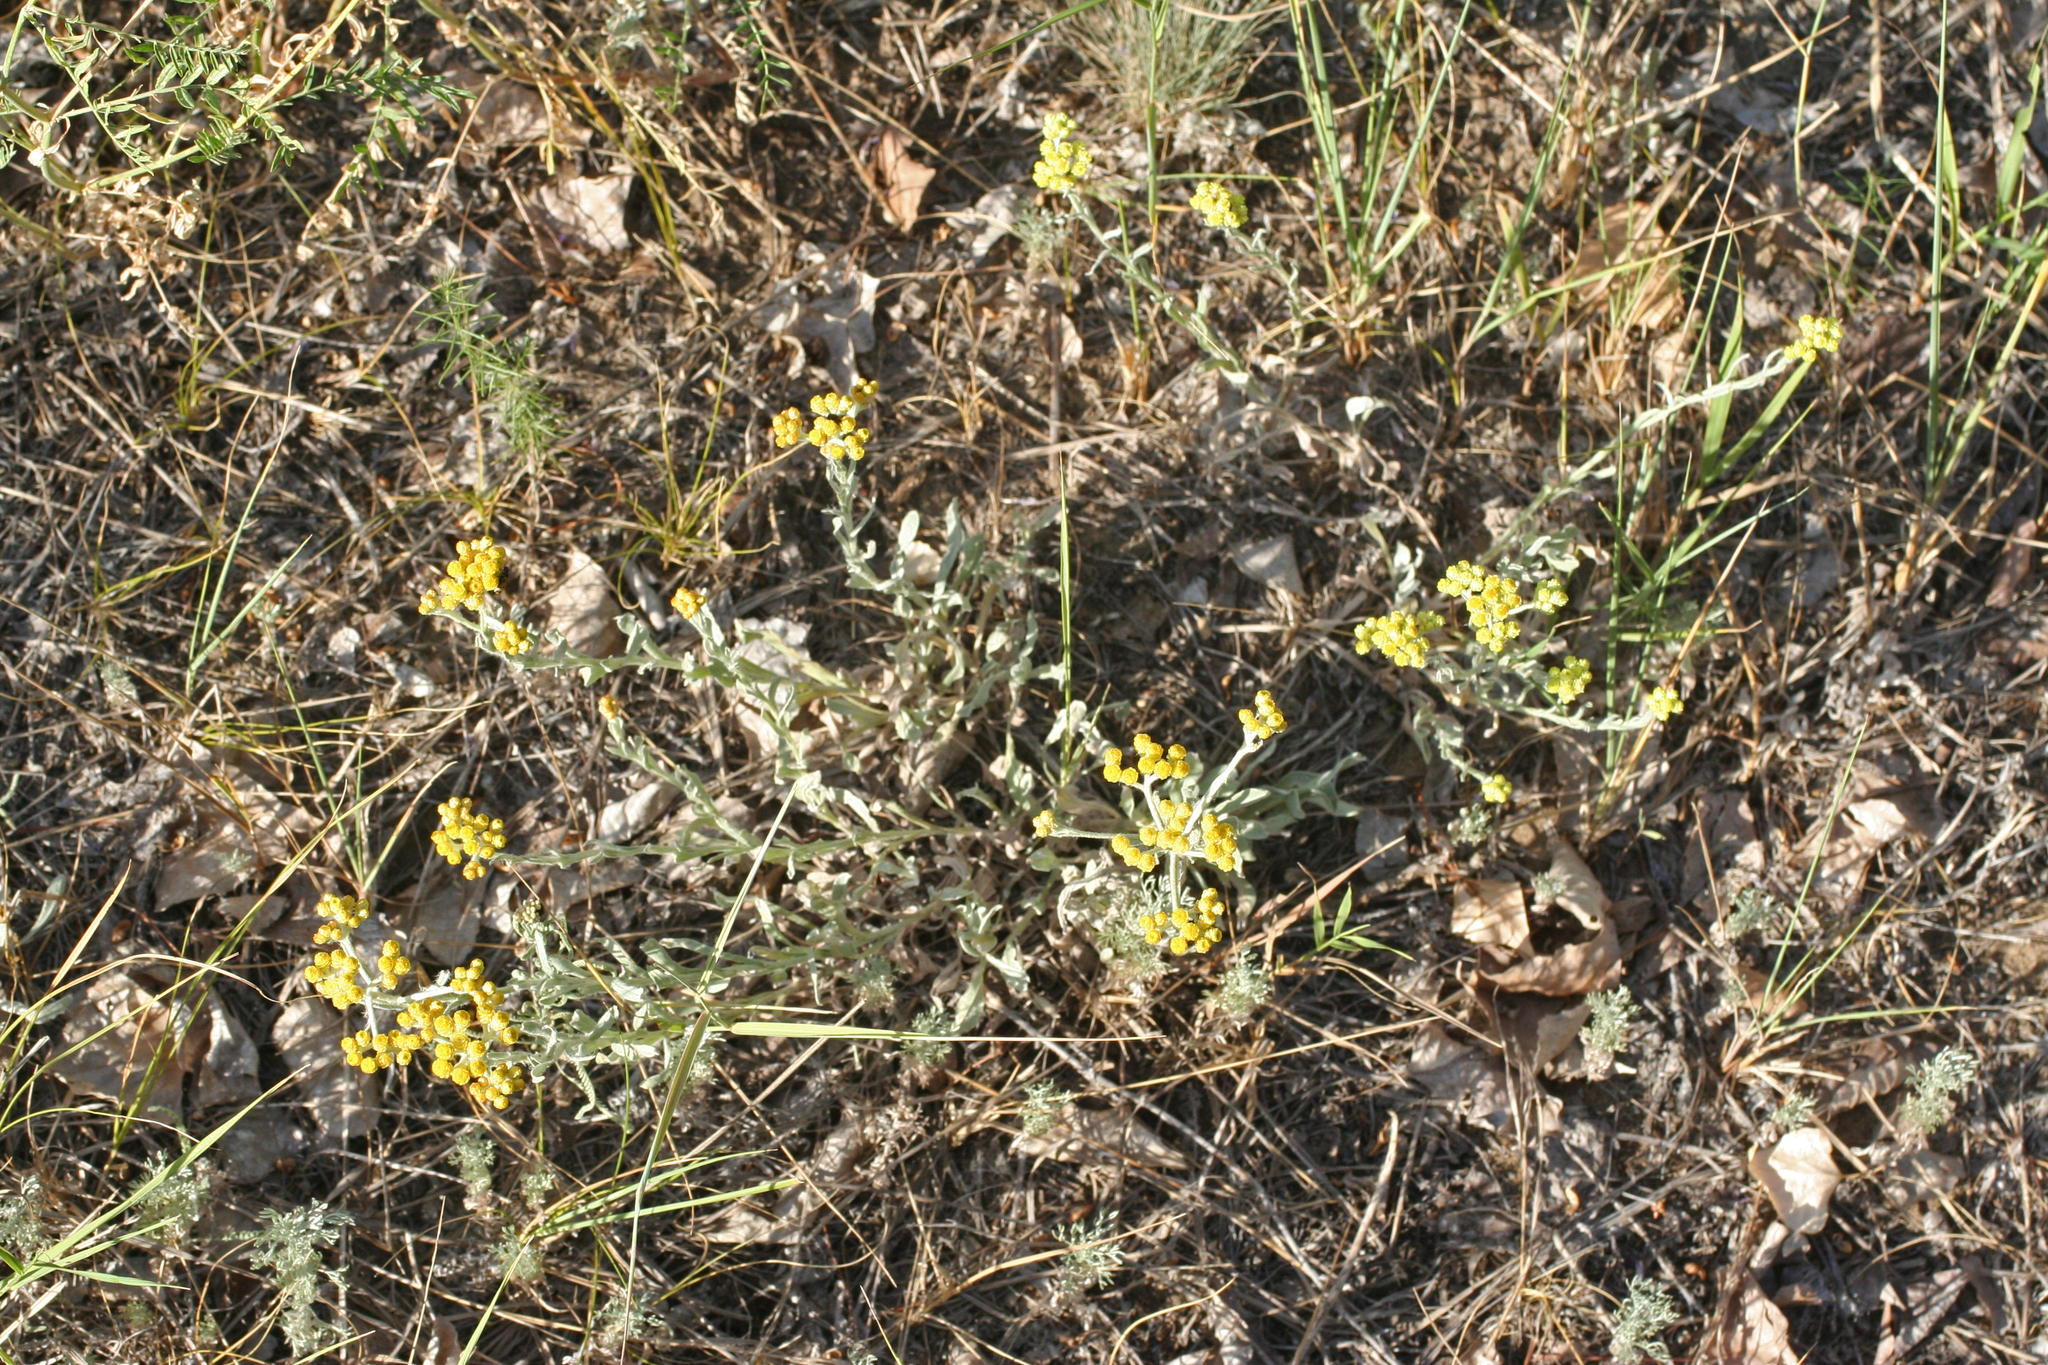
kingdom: Plantae
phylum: Tracheophyta
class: Magnoliopsida
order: Asterales
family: Asteraceae
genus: Helichrysum
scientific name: Helichrysum arenarium
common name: Strawflower
